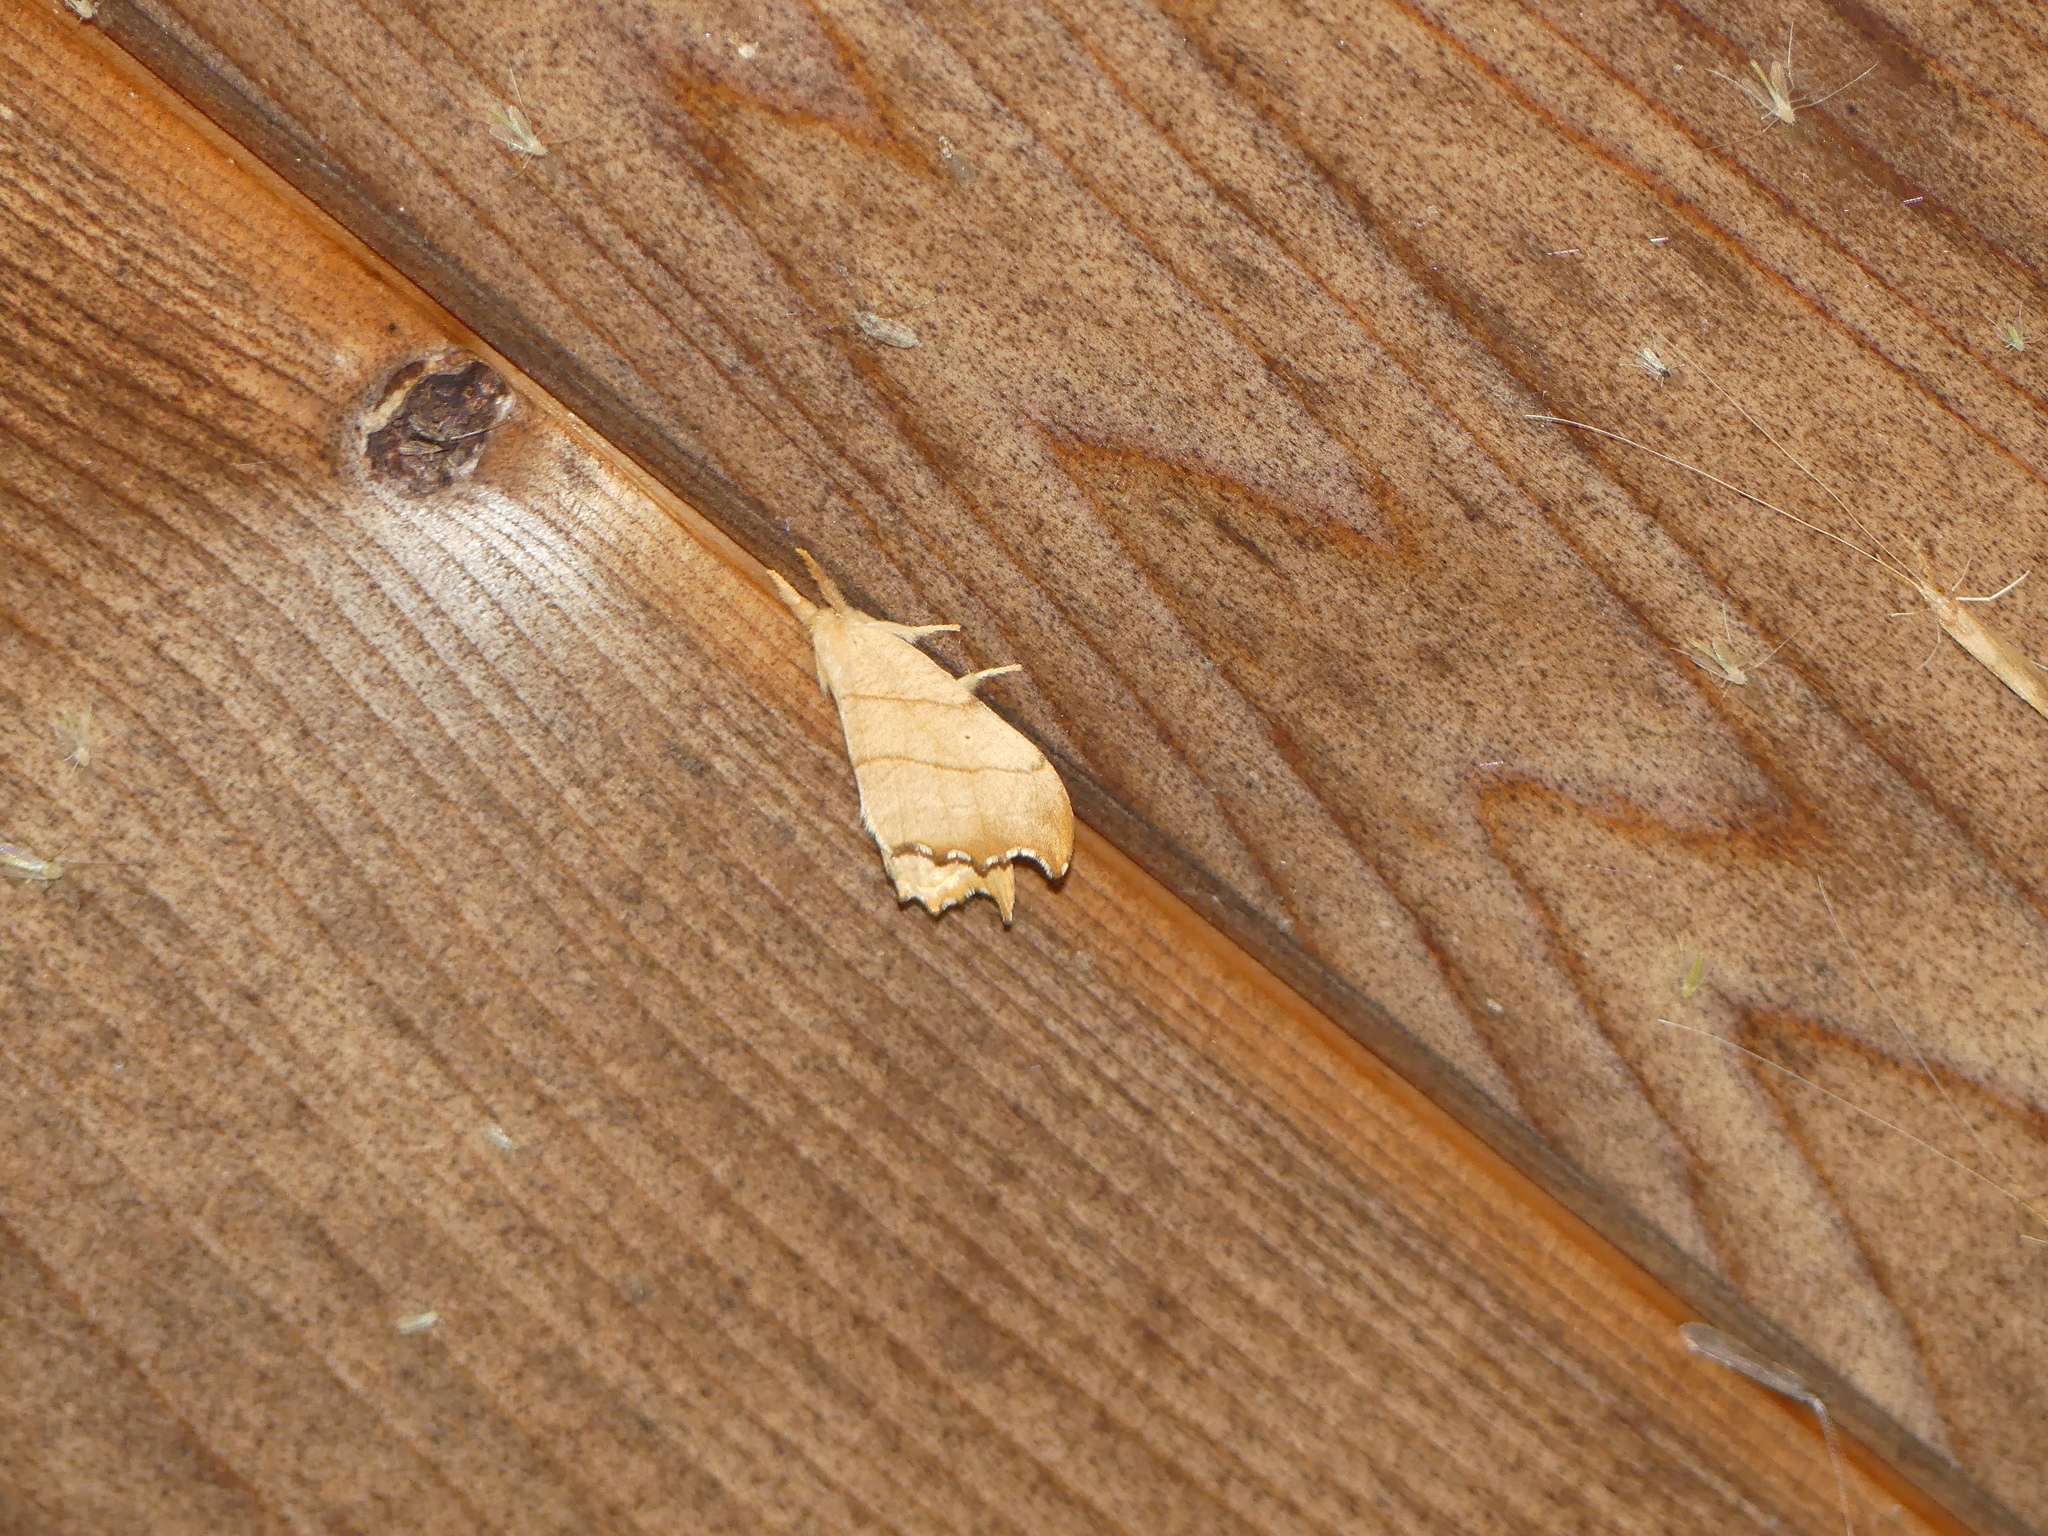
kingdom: Animalia
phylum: Arthropoda
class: Insecta
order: Lepidoptera
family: Drepanidae
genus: Falcaria
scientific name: Falcaria bilineata
